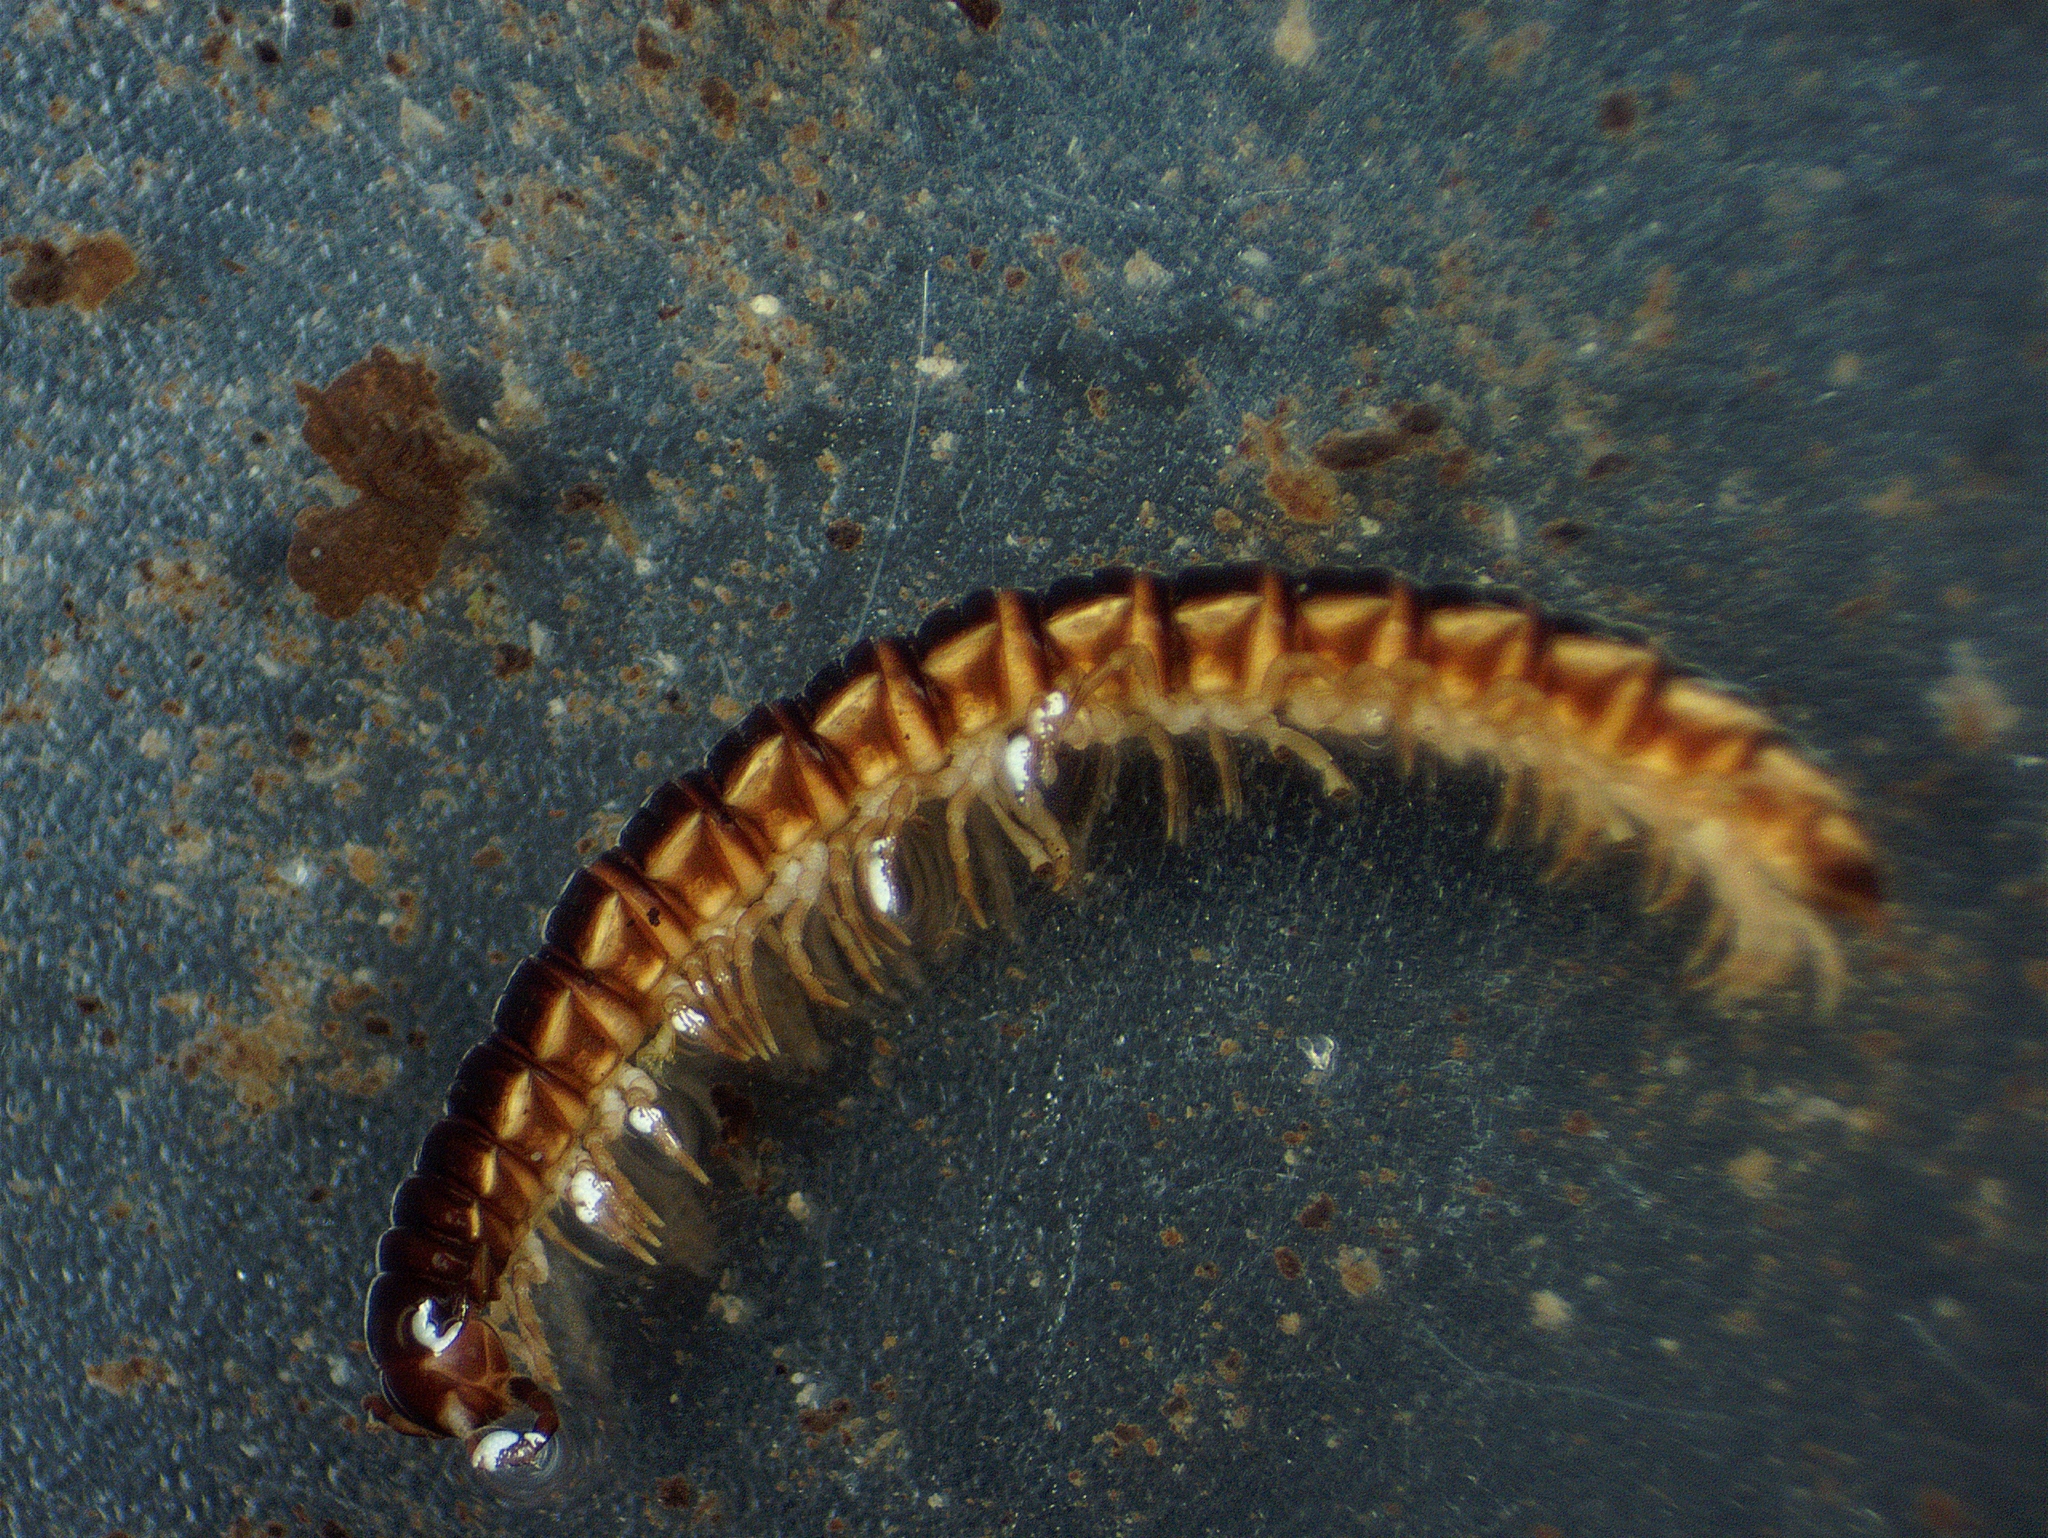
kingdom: Animalia
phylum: Arthropoda
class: Diplopoda
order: Polydesmida
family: Paradoxosomatidae
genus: Oxidus
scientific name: Oxidus gracilis
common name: Greenhouse millipede
